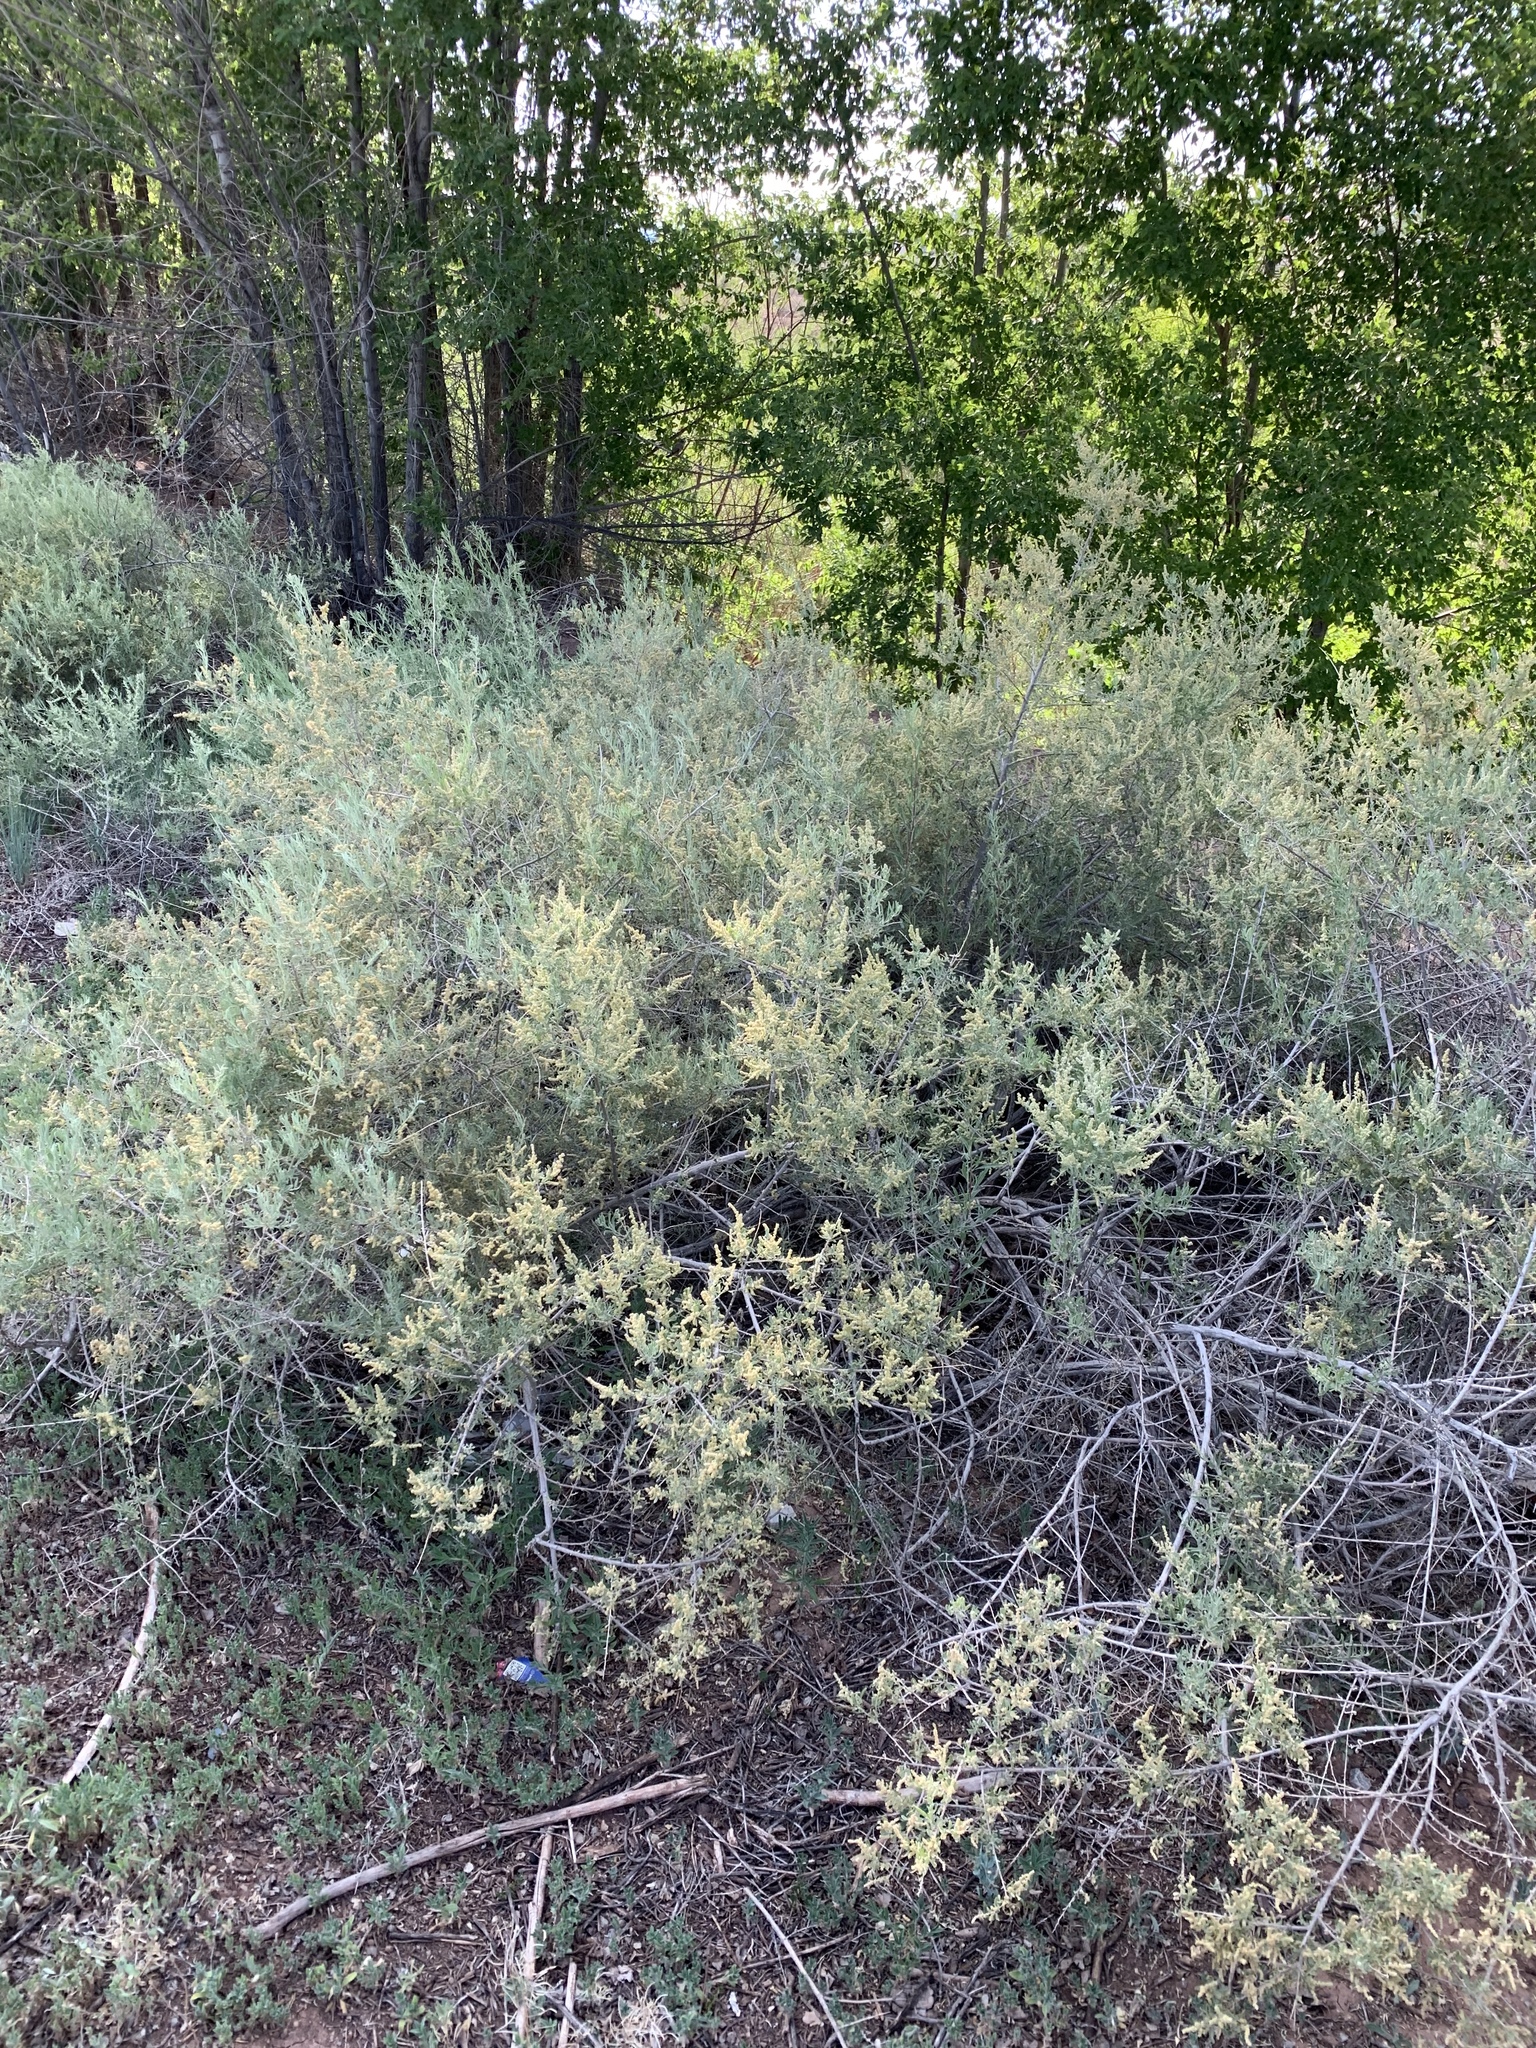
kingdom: Plantae
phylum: Tracheophyta
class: Magnoliopsida
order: Caryophyllales
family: Amaranthaceae
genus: Atriplex
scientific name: Atriplex canescens
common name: Four-wing saltbush
